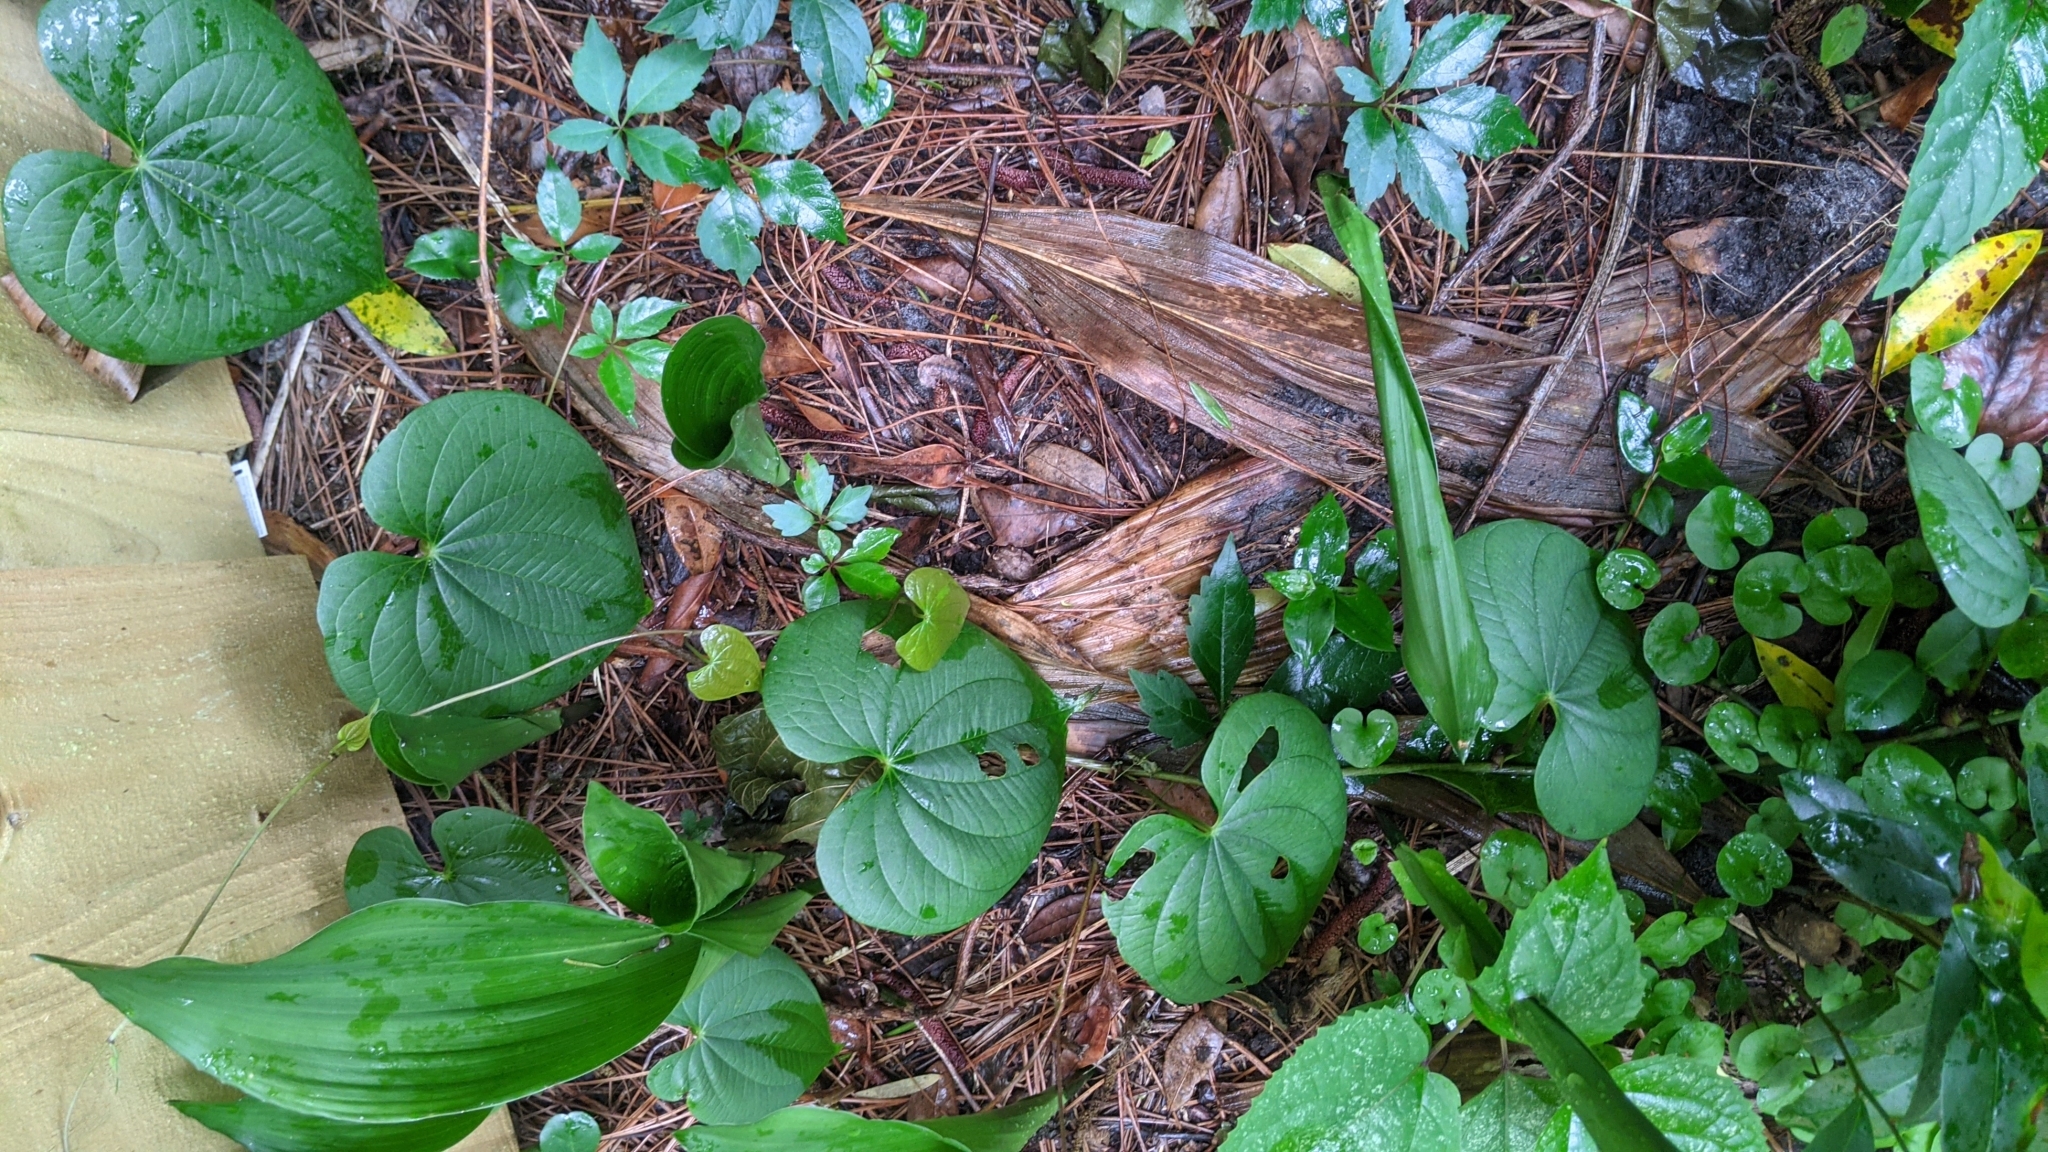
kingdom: Plantae
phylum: Tracheophyta
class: Liliopsida
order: Dioscoreales
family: Dioscoreaceae
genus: Dioscorea
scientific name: Dioscorea bulbifera
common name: Air yam
